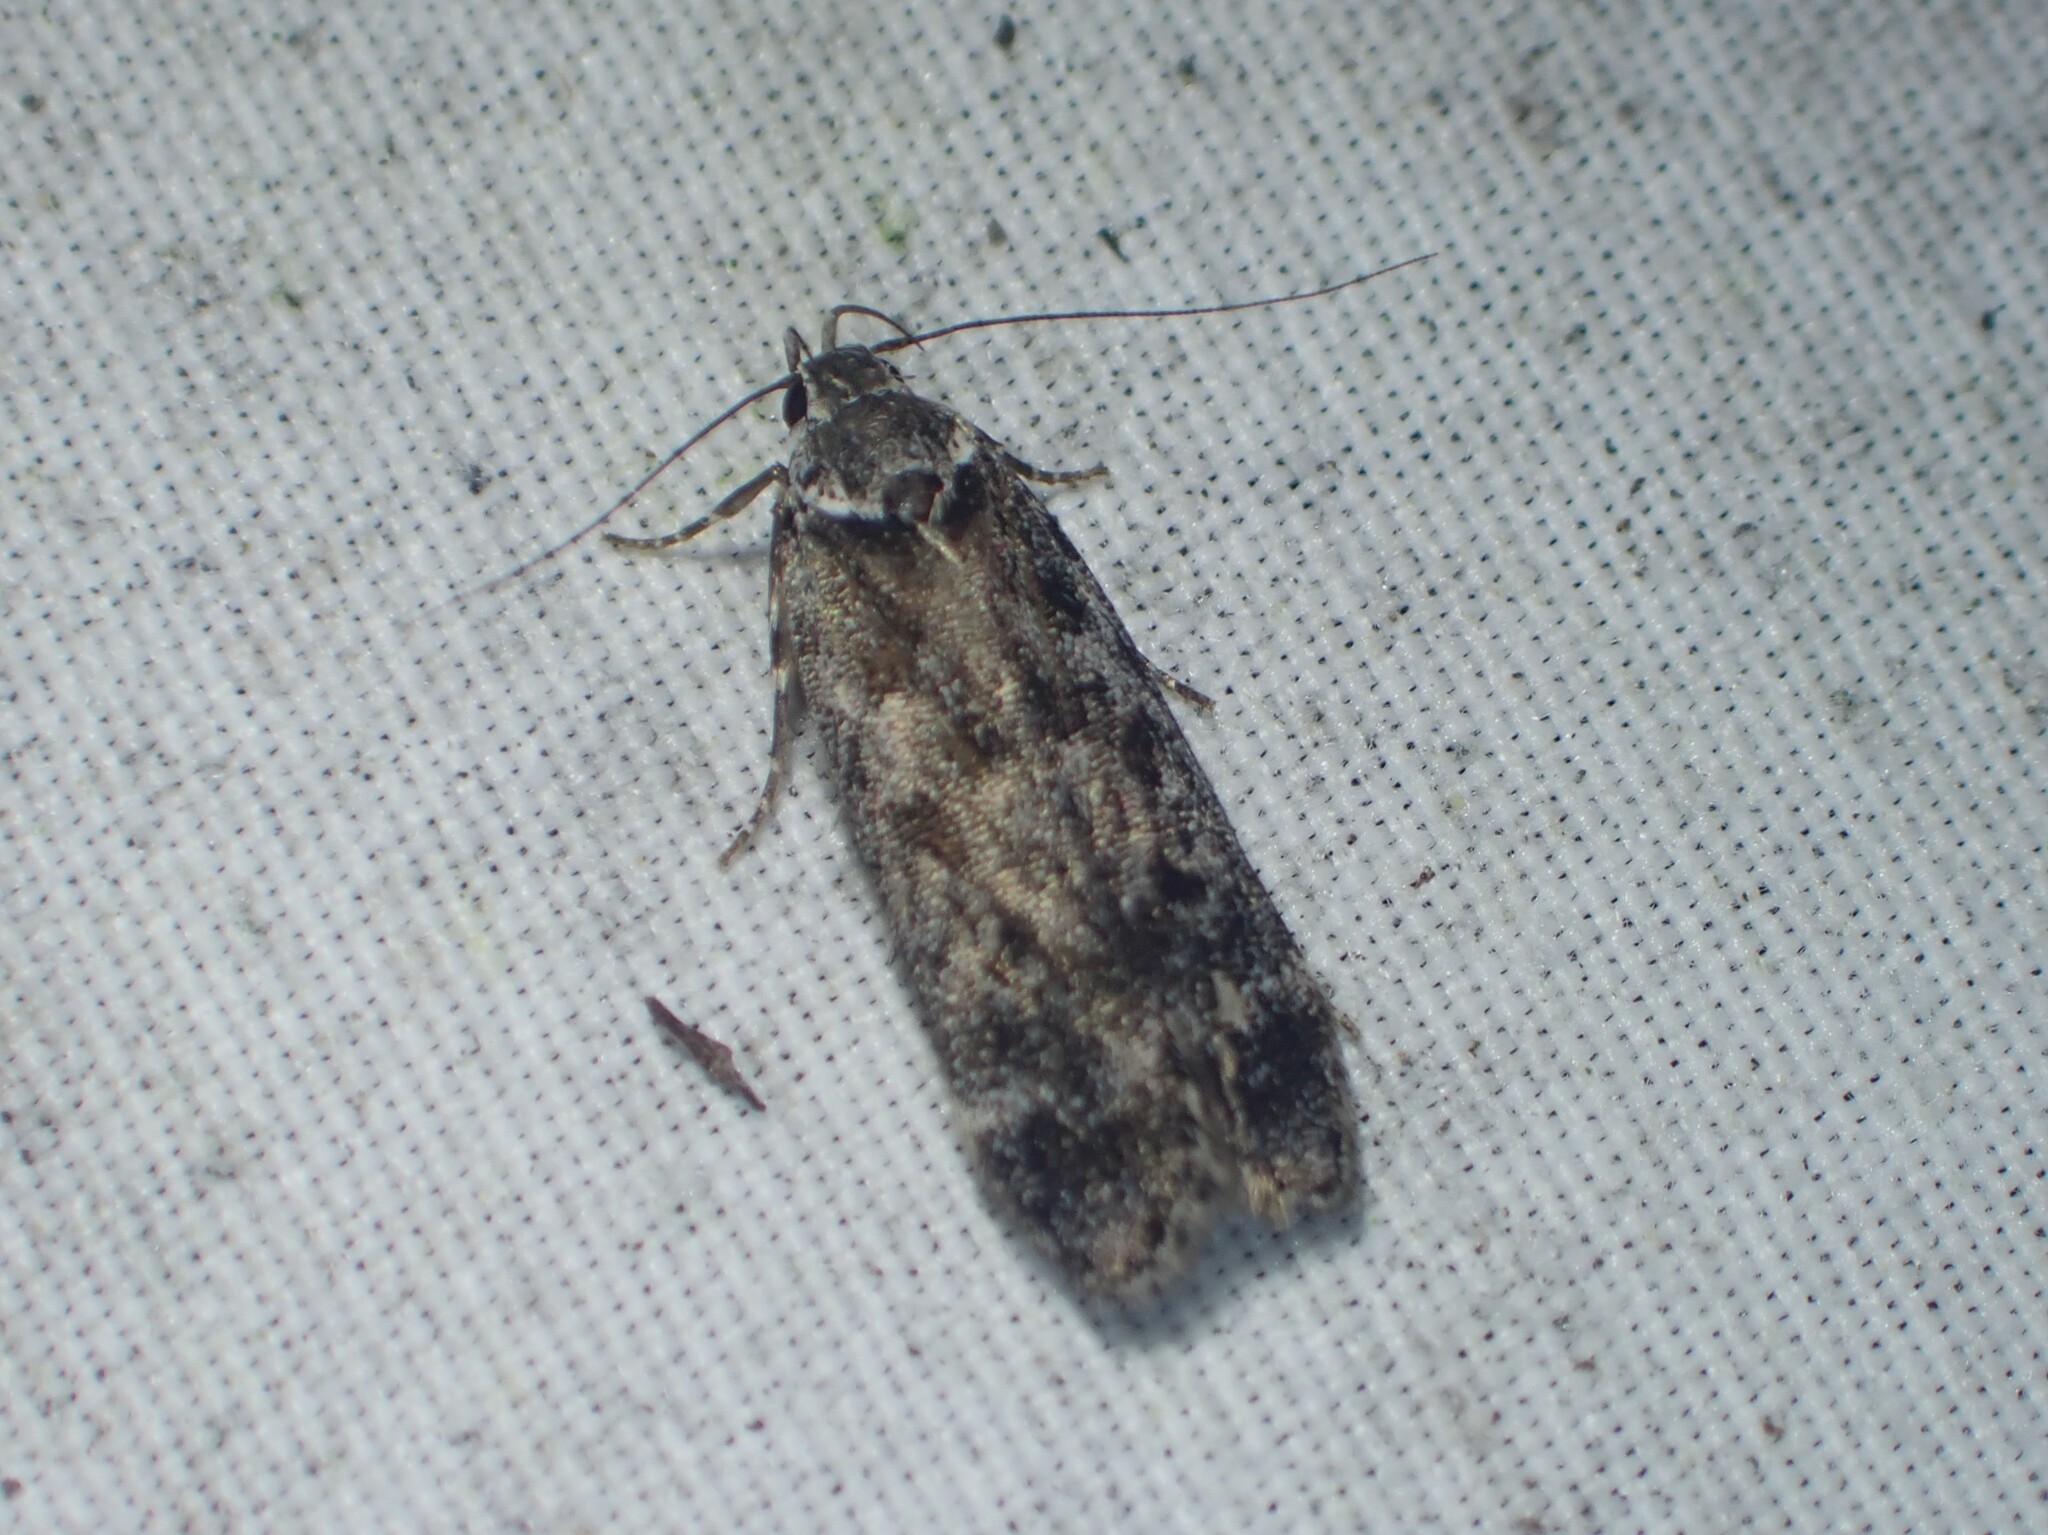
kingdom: Animalia
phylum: Arthropoda
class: Insecta
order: Lepidoptera
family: Gelechiidae
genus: Anacampsis
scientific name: Anacampsis niveopulvella
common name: Pale-headed aspen leafroller moth
